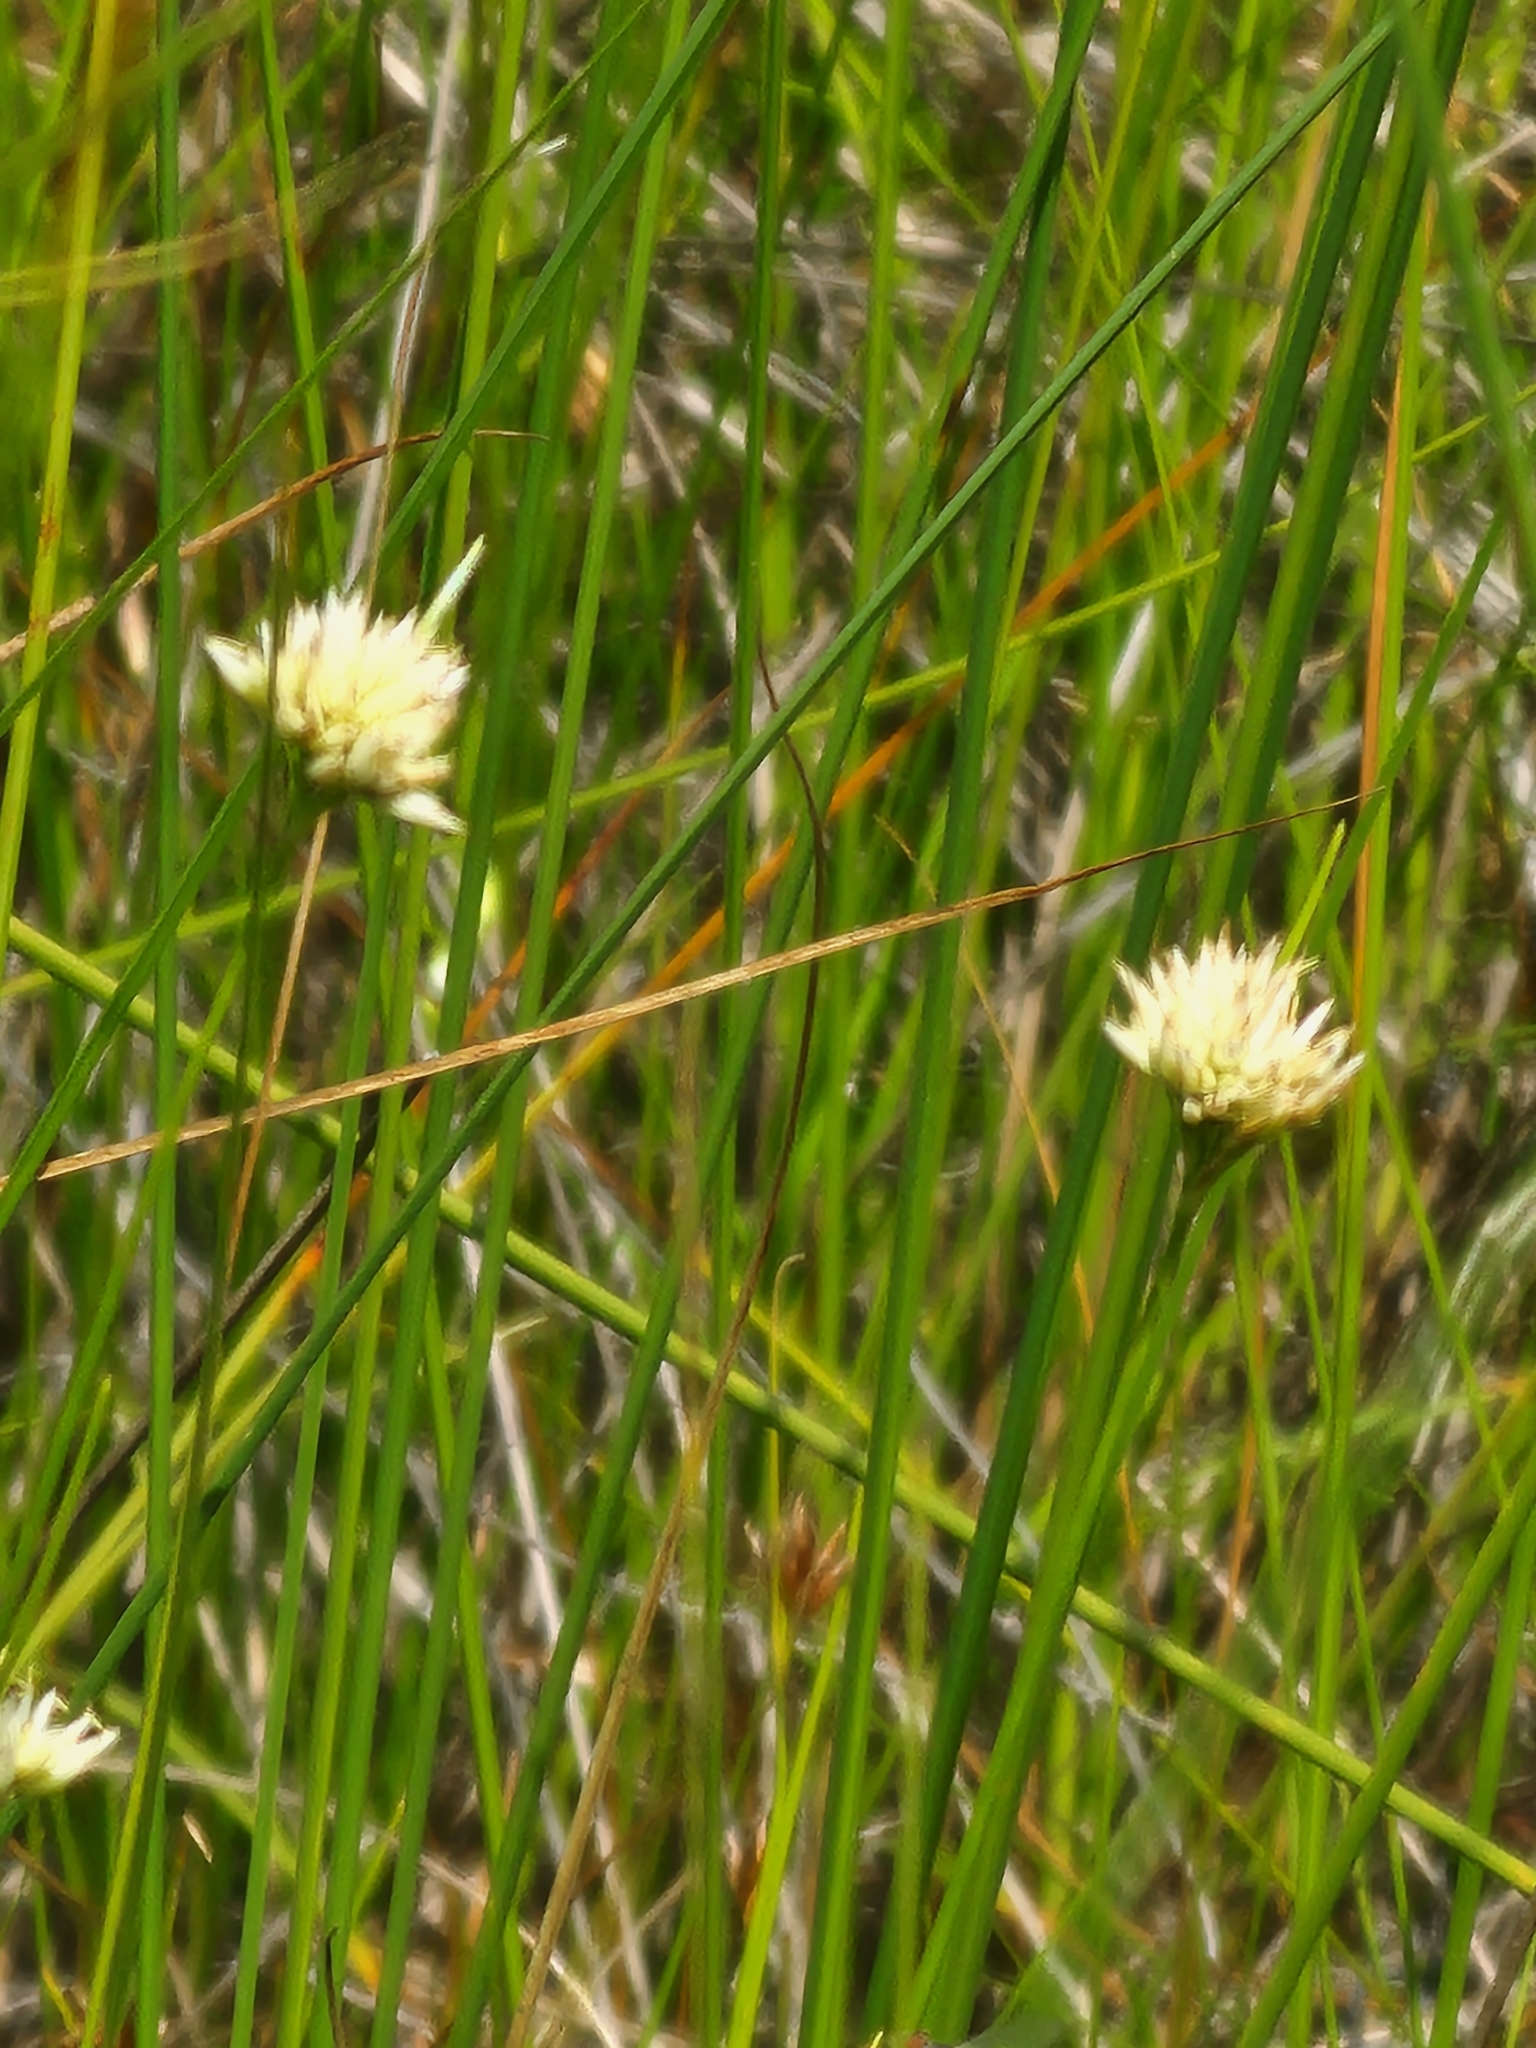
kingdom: Plantae
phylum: Tracheophyta
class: Liliopsida
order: Poales
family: Cyperaceae
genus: Rhynchospora
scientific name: Rhynchospora alba
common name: White beak-sedge
